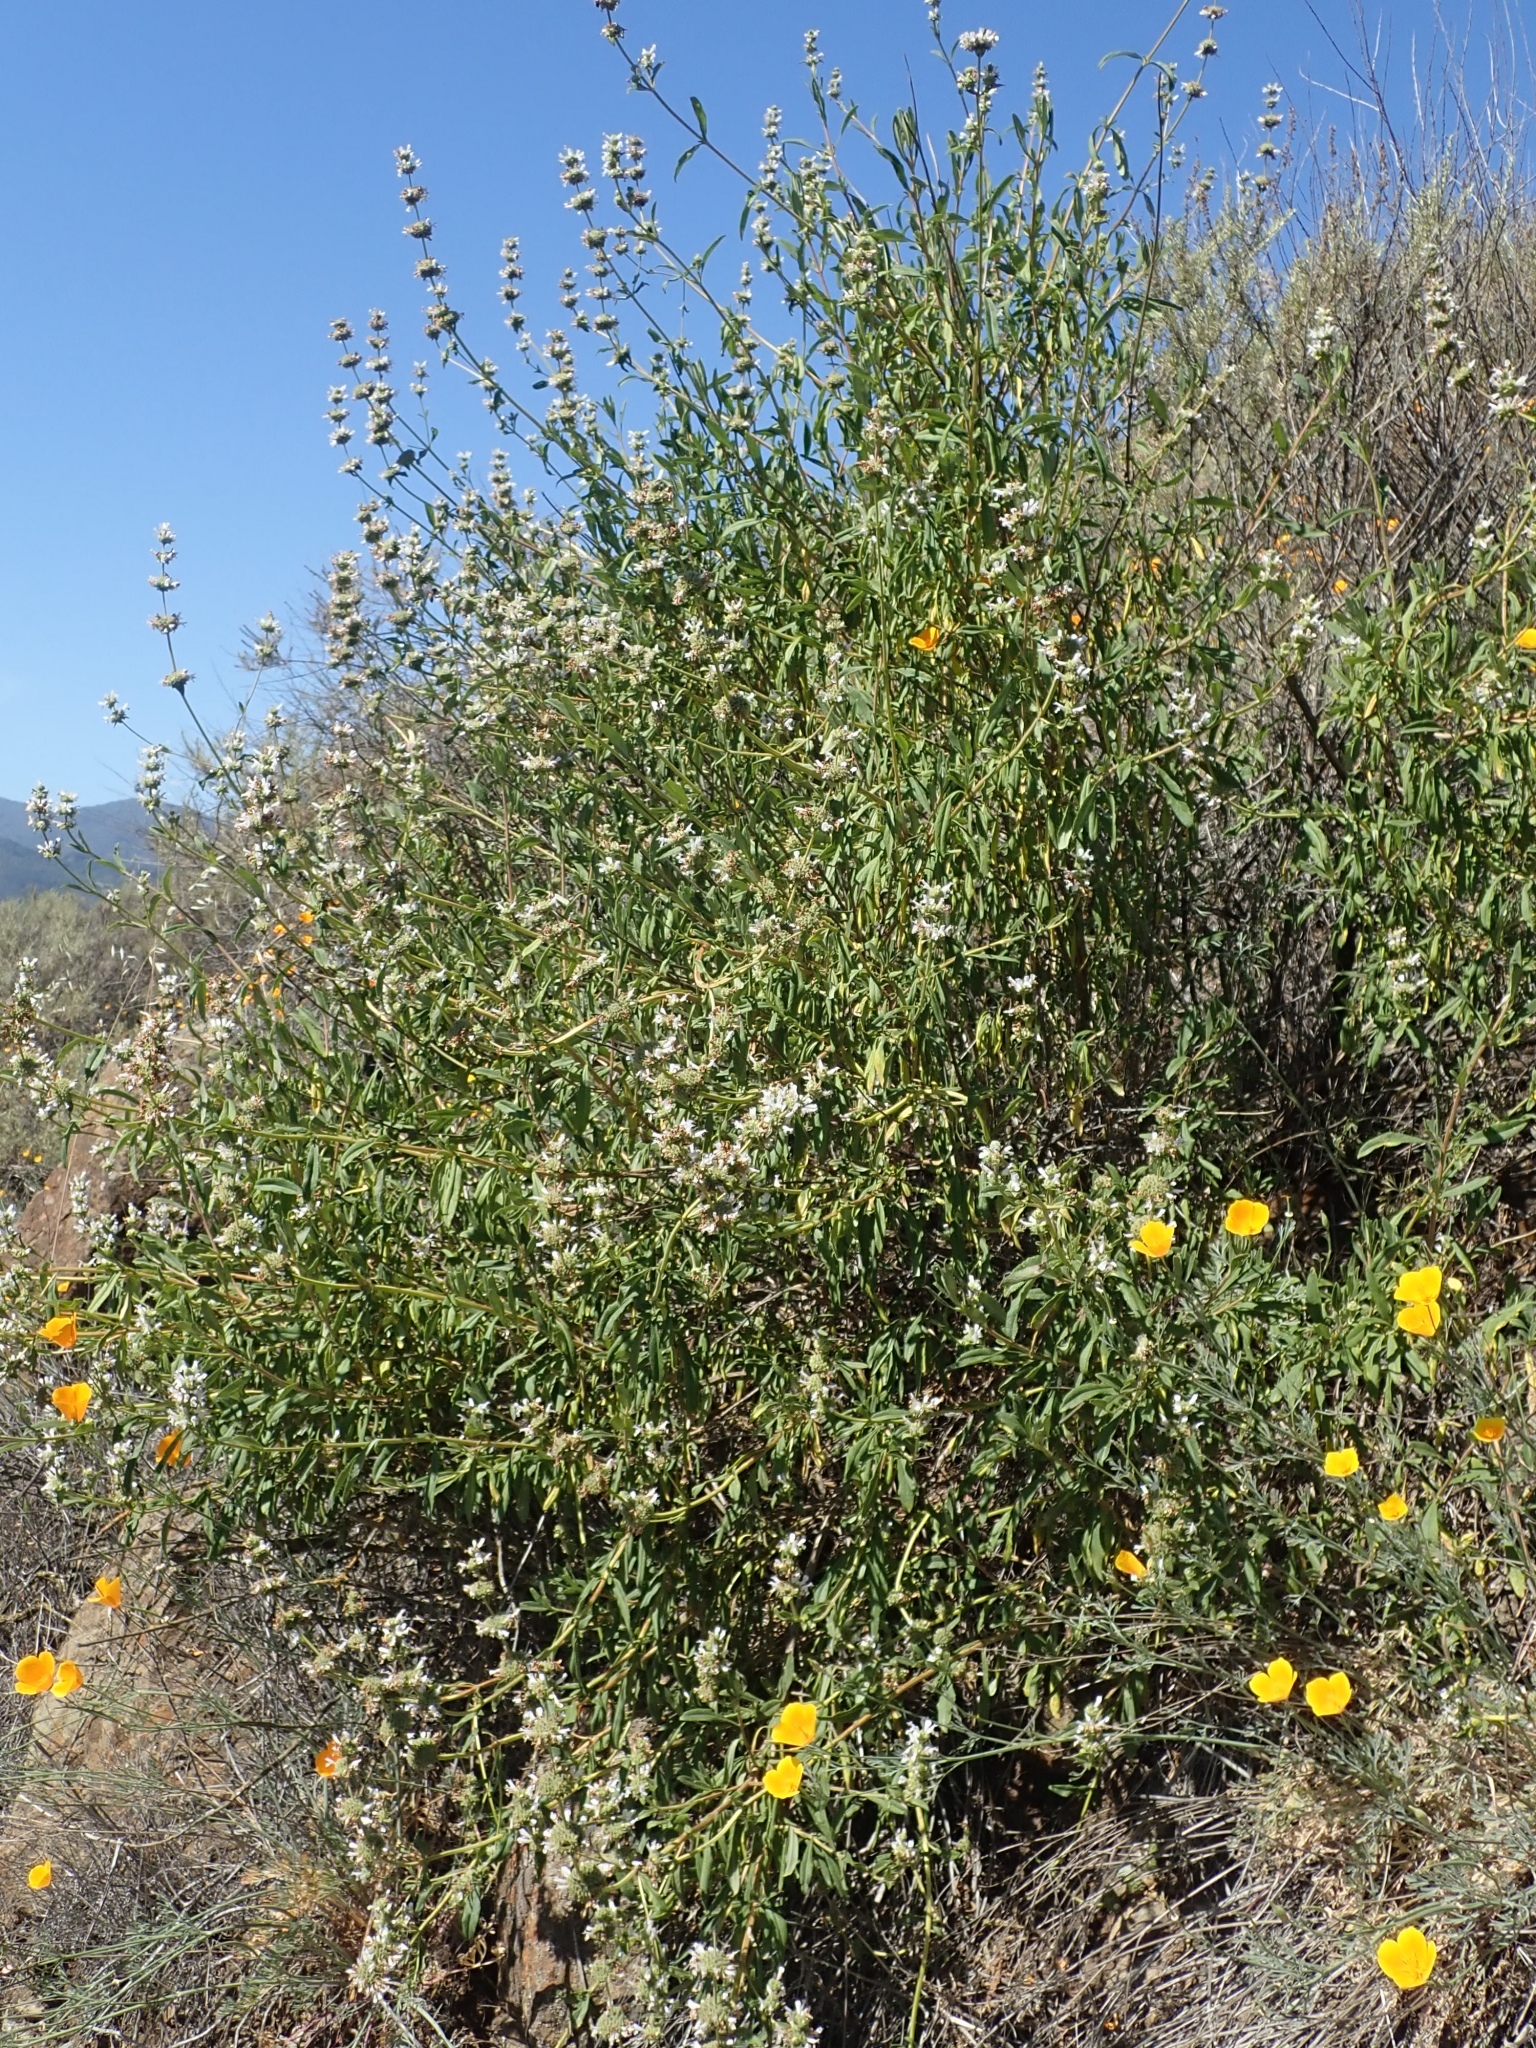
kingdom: Plantae
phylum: Tracheophyta
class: Magnoliopsida
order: Lamiales
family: Lamiaceae
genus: Salvia
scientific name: Salvia mellifera
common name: Black sage
